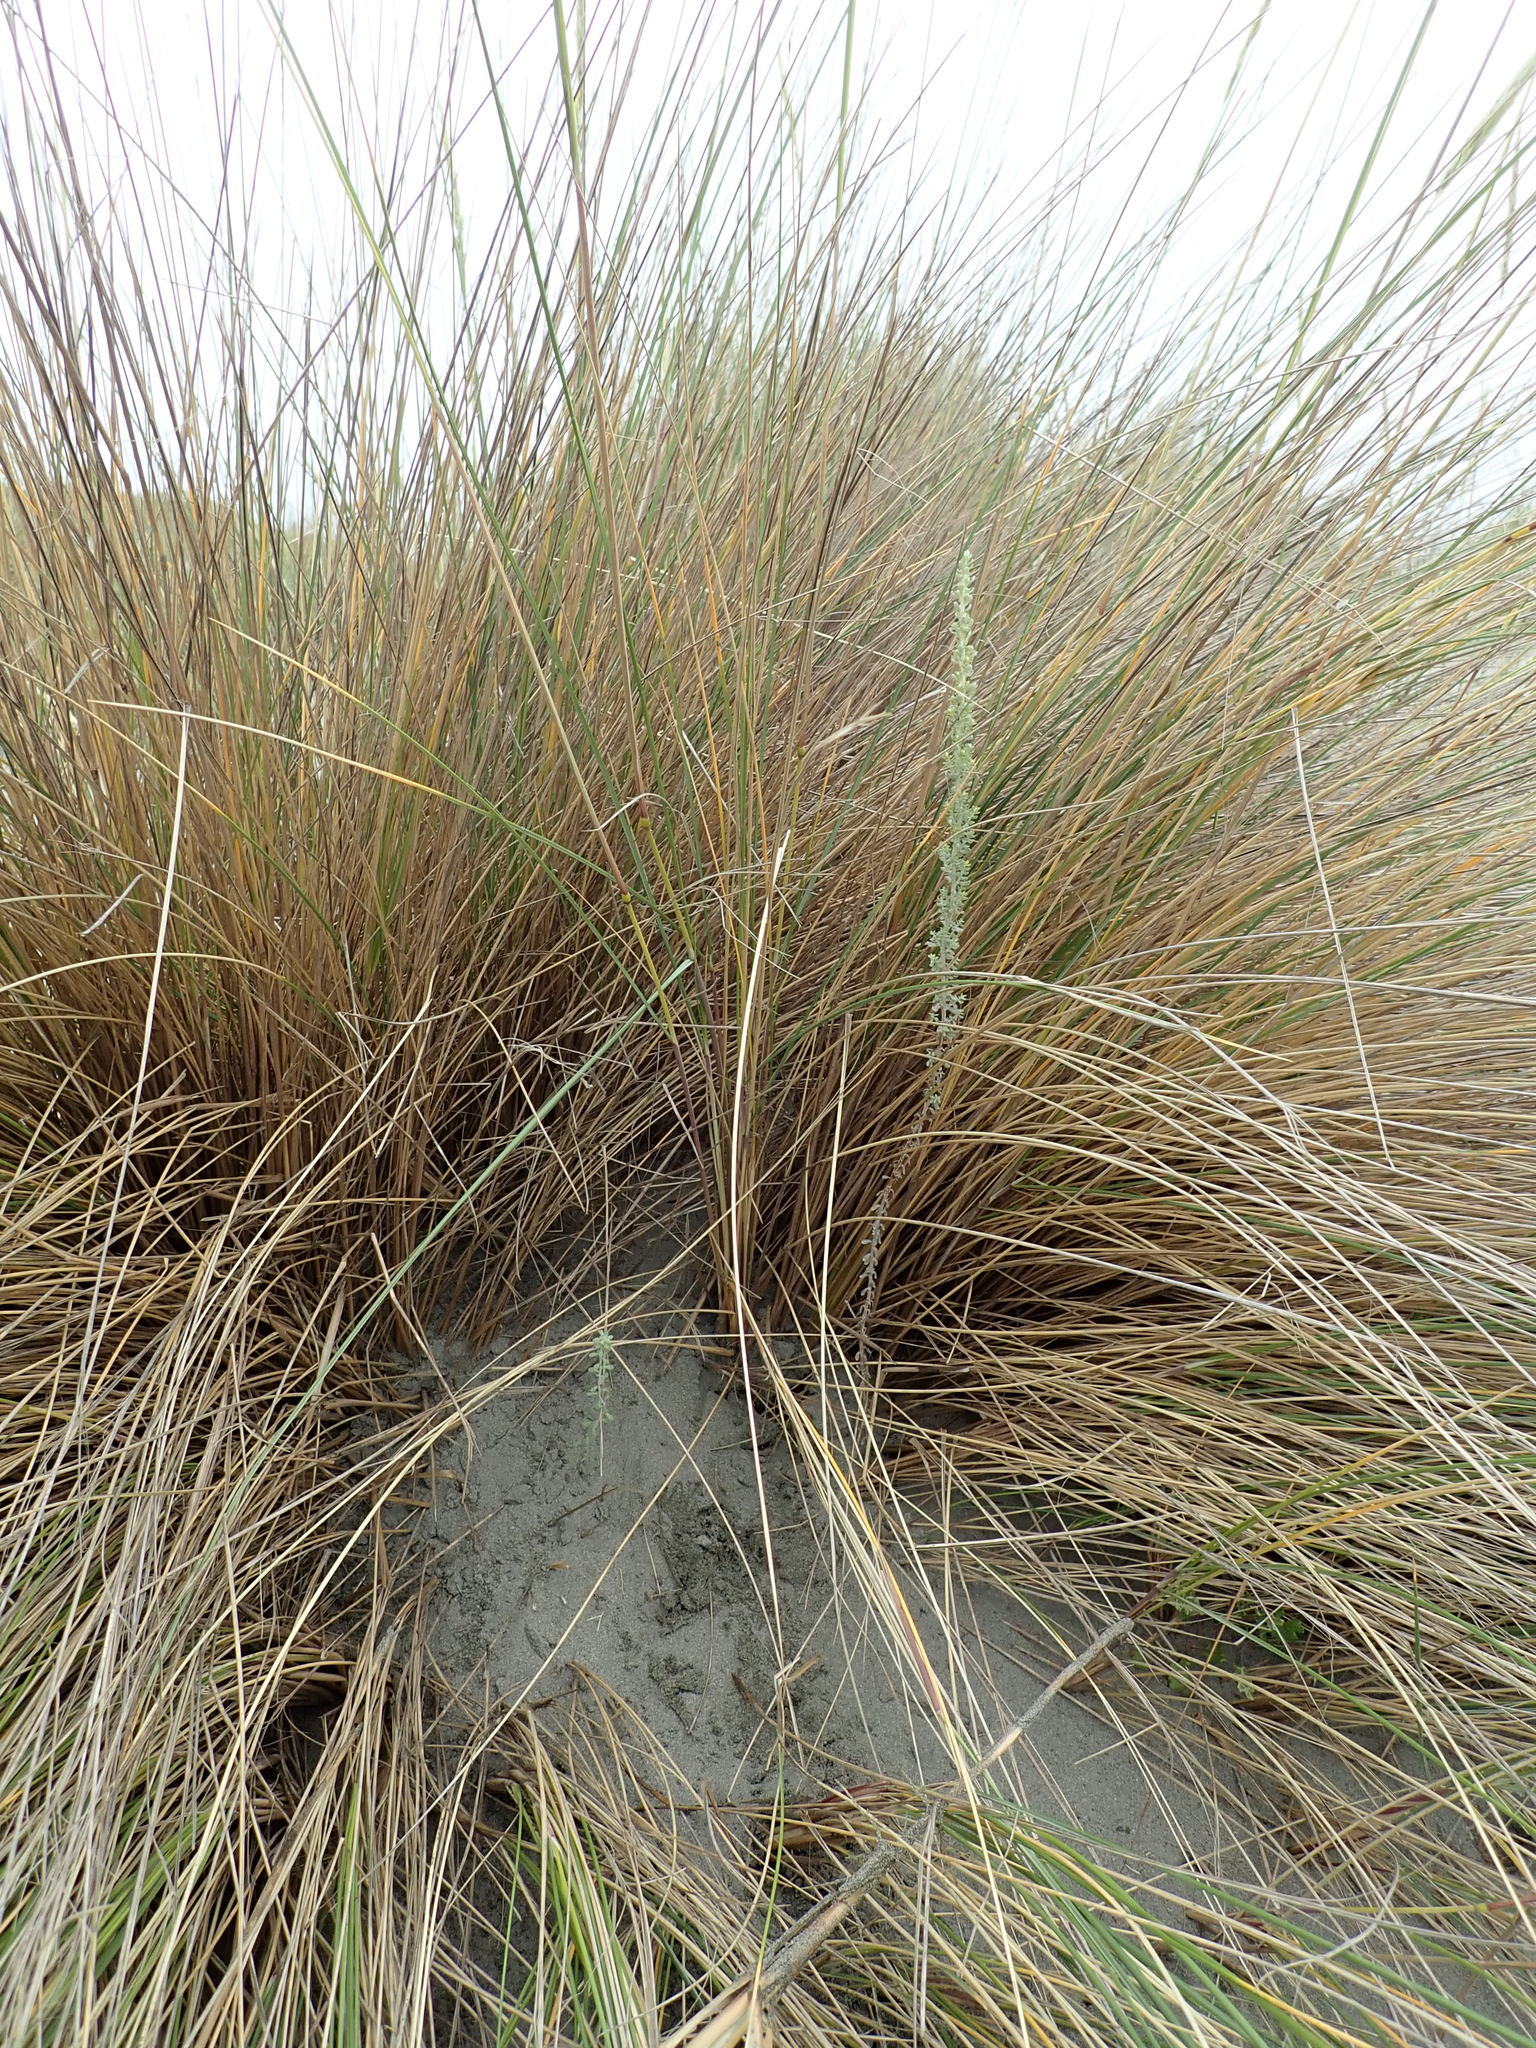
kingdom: Plantae
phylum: Tracheophyta
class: Magnoliopsida
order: Asterales
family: Asteraceae
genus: Ozothamnus
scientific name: Ozothamnus leptophyllus
